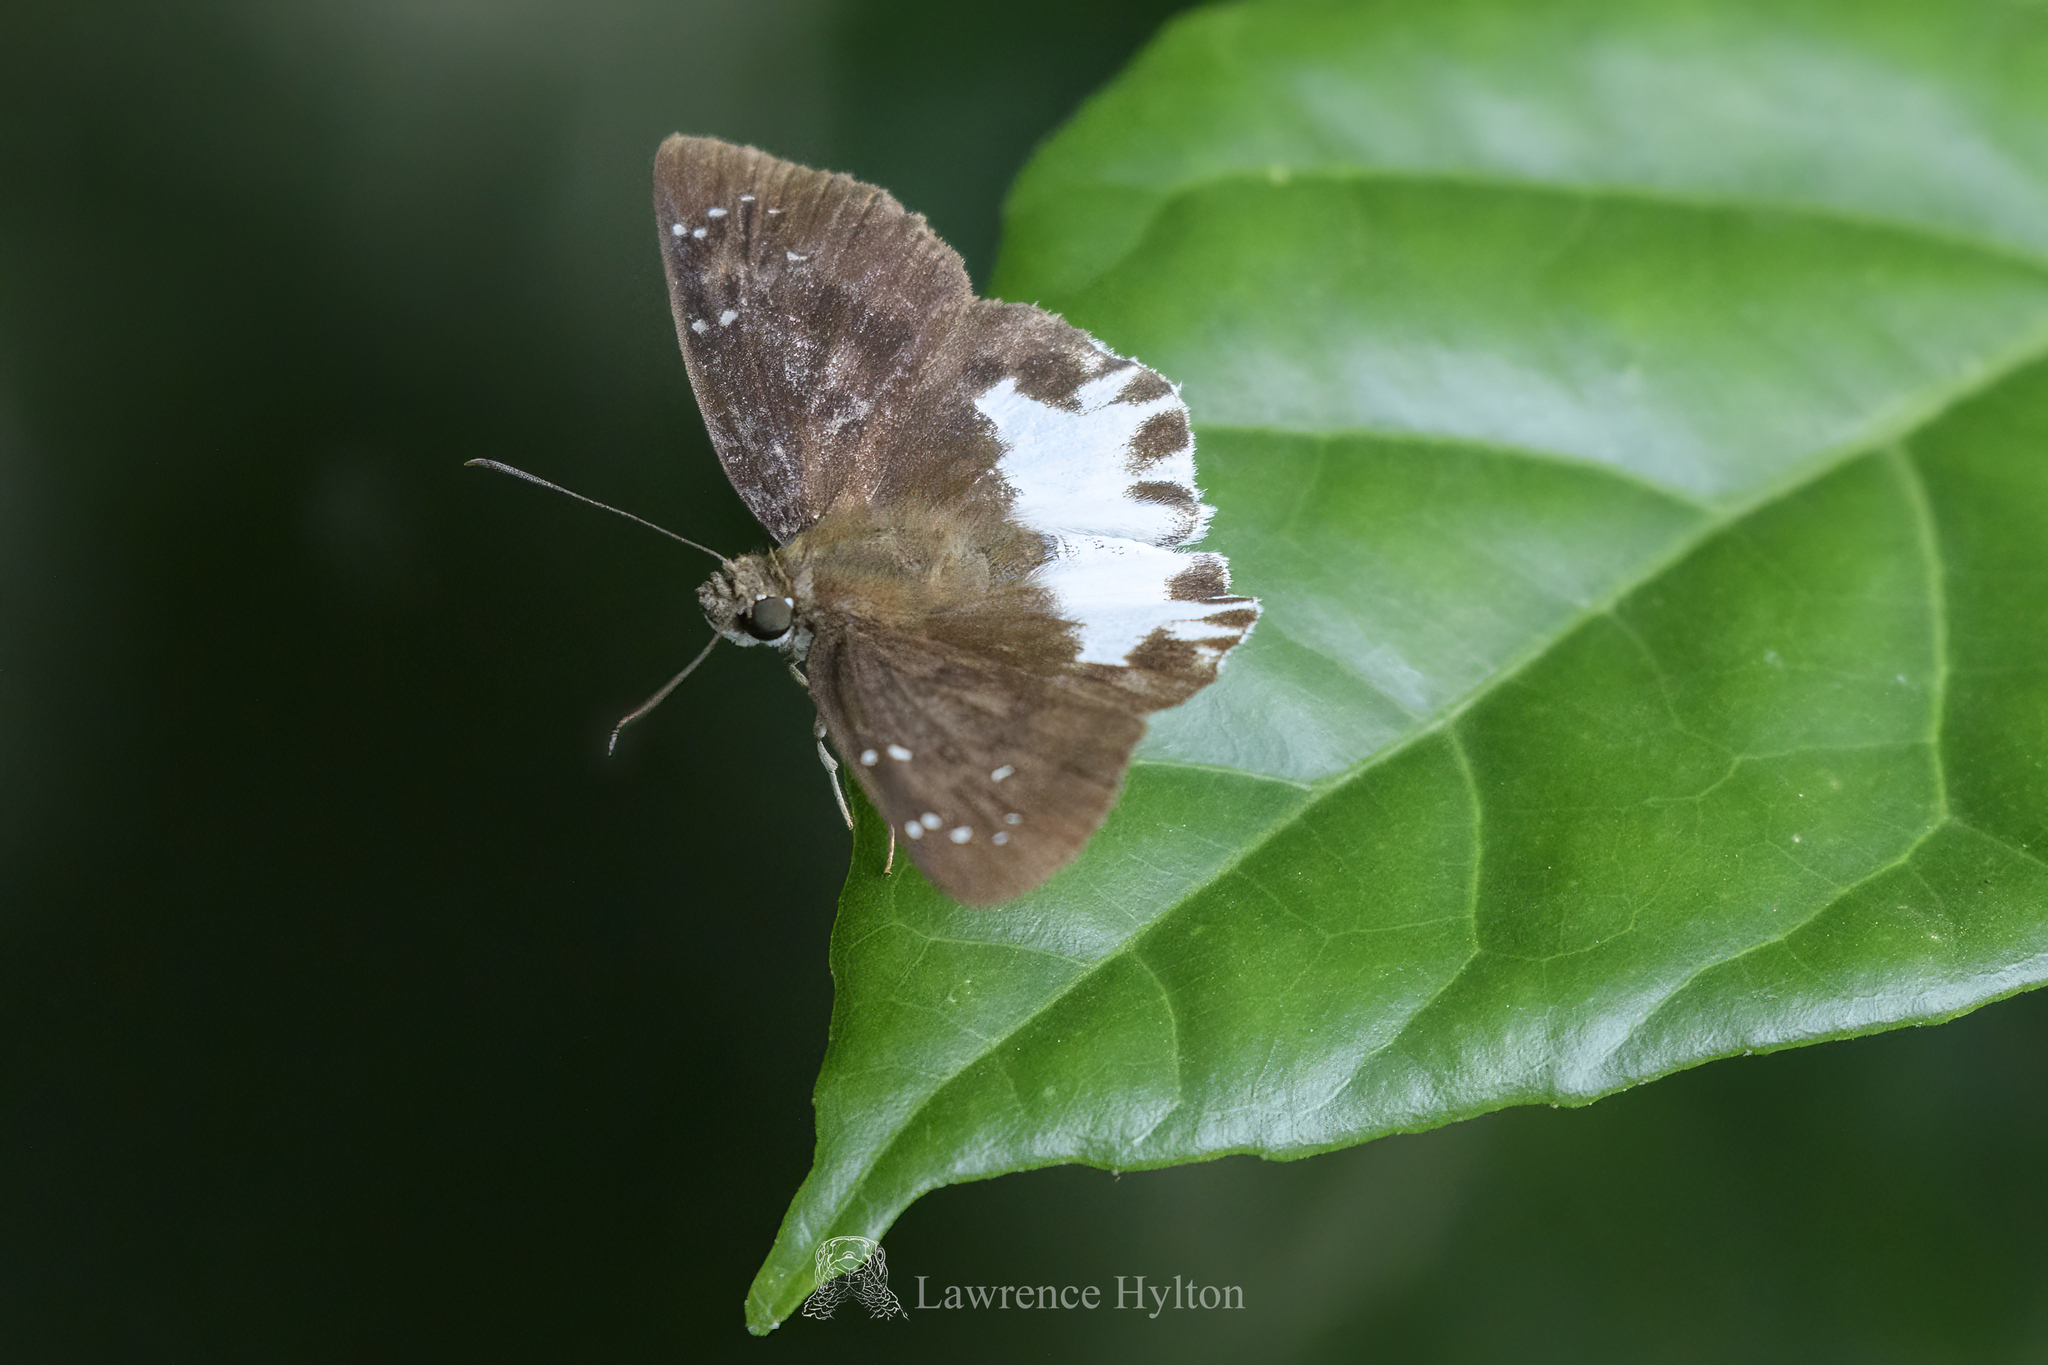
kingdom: Animalia
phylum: Arthropoda
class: Insecta
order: Lepidoptera
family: Hesperiidae
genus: Tagiades
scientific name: Tagiades litigiosa
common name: Water snow flat
